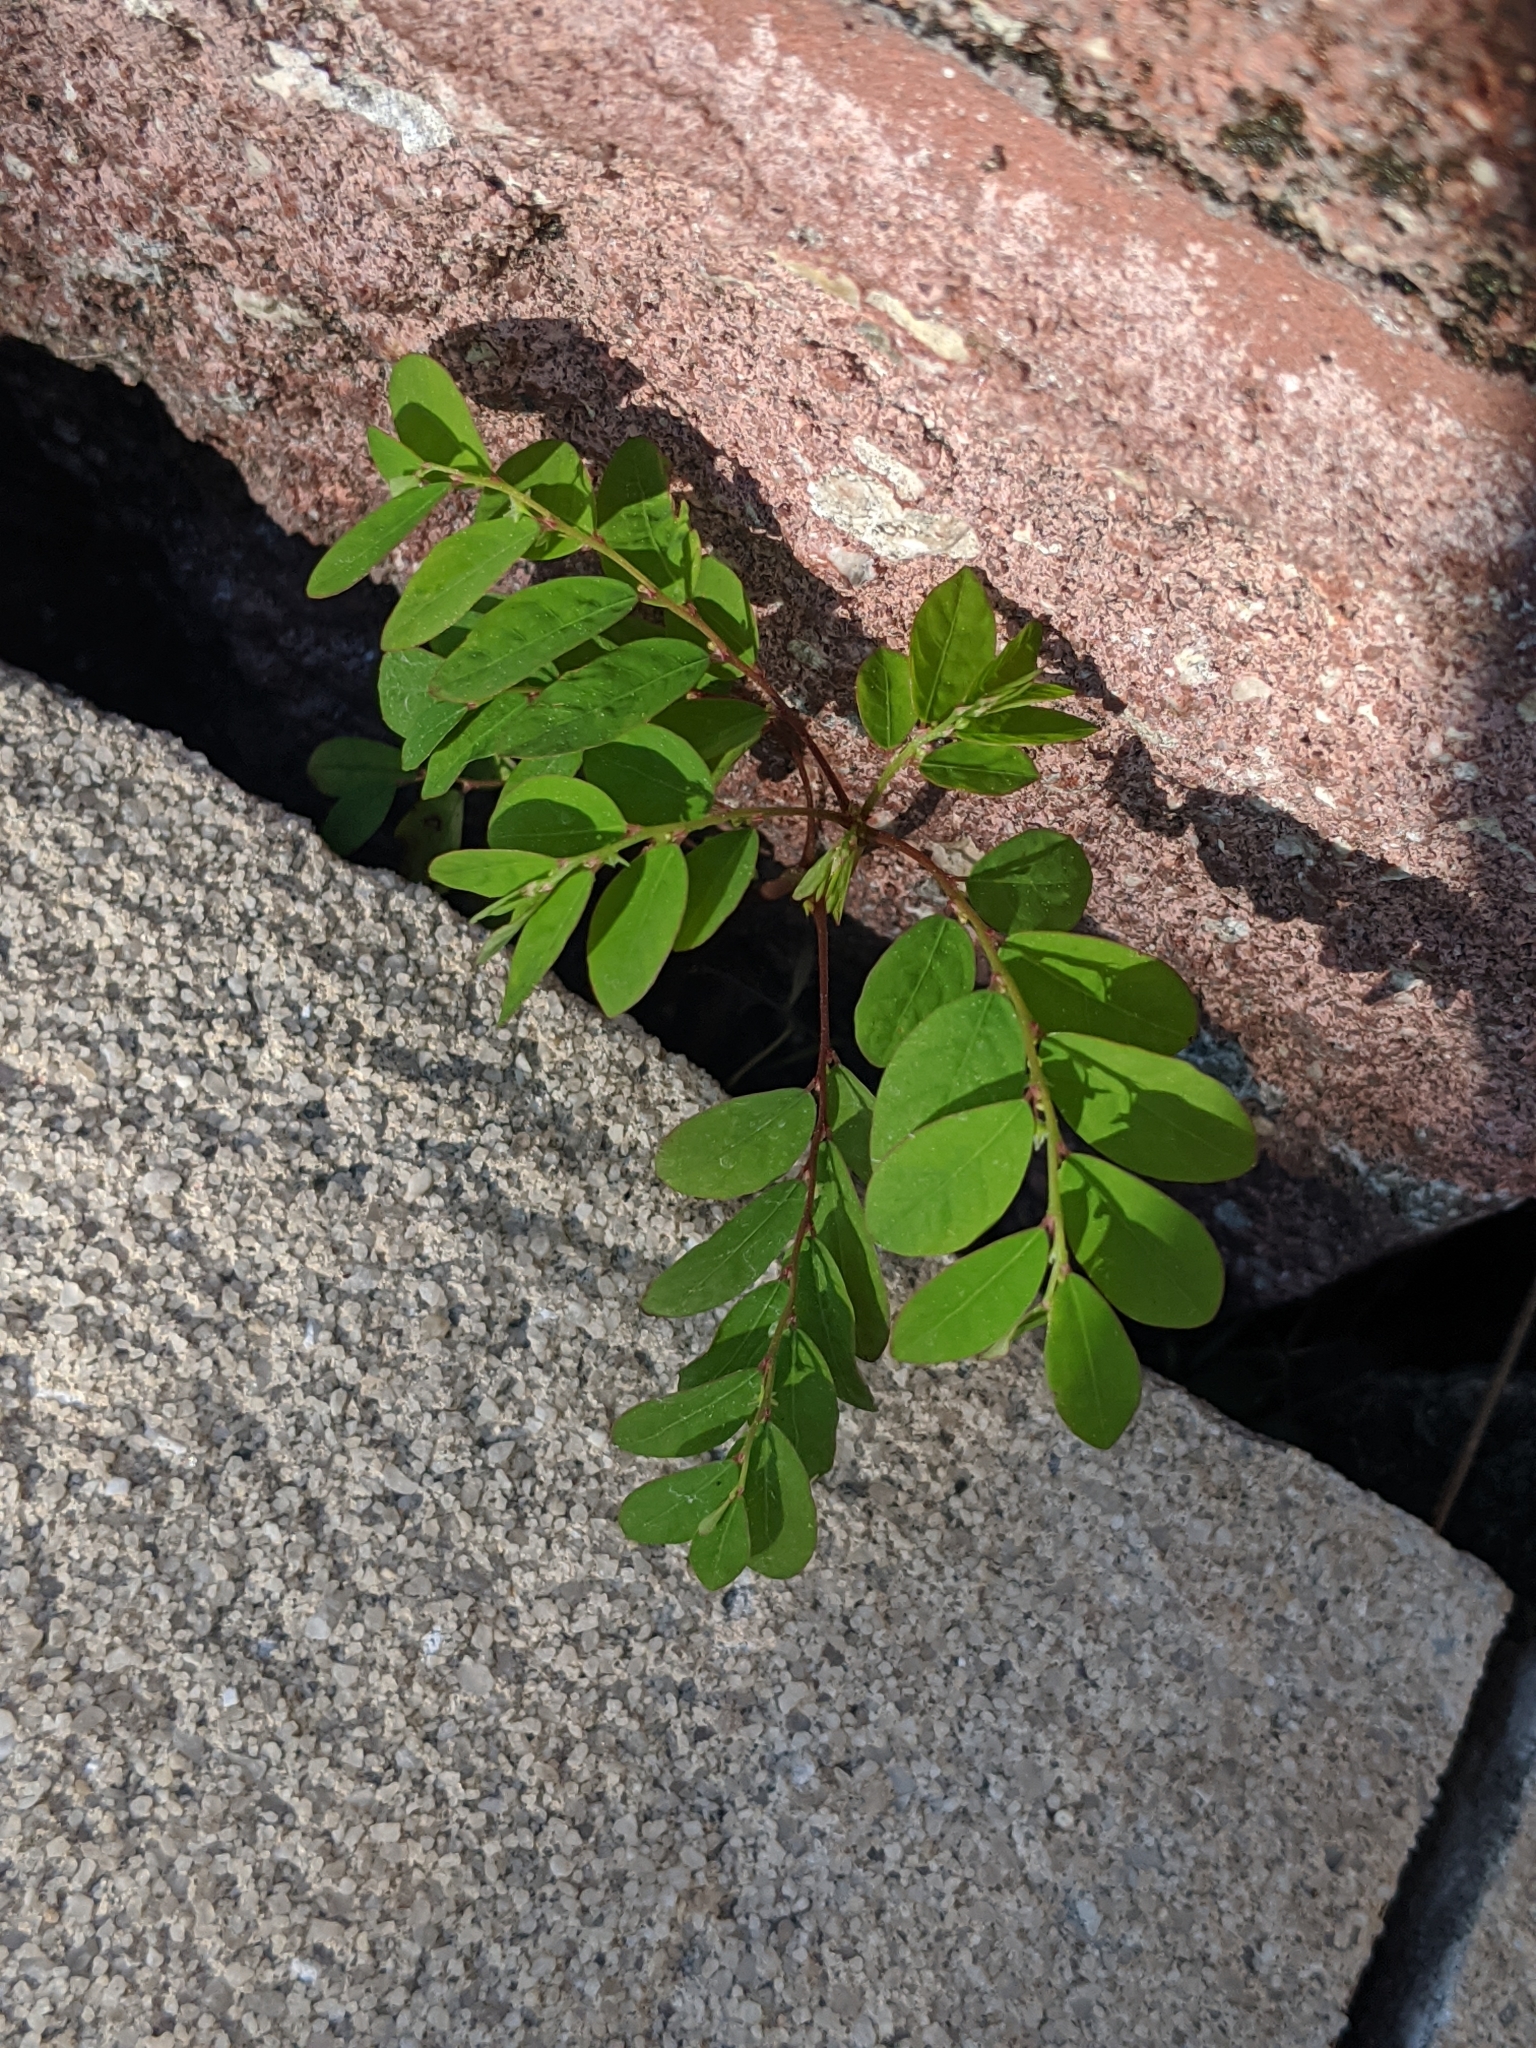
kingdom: Plantae
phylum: Tracheophyta
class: Magnoliopsida
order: Malpighiales
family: Phyllanthaceae
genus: Phyllanthus
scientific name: Phyllanthus tenellus
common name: Mascarene island leaf-flower
